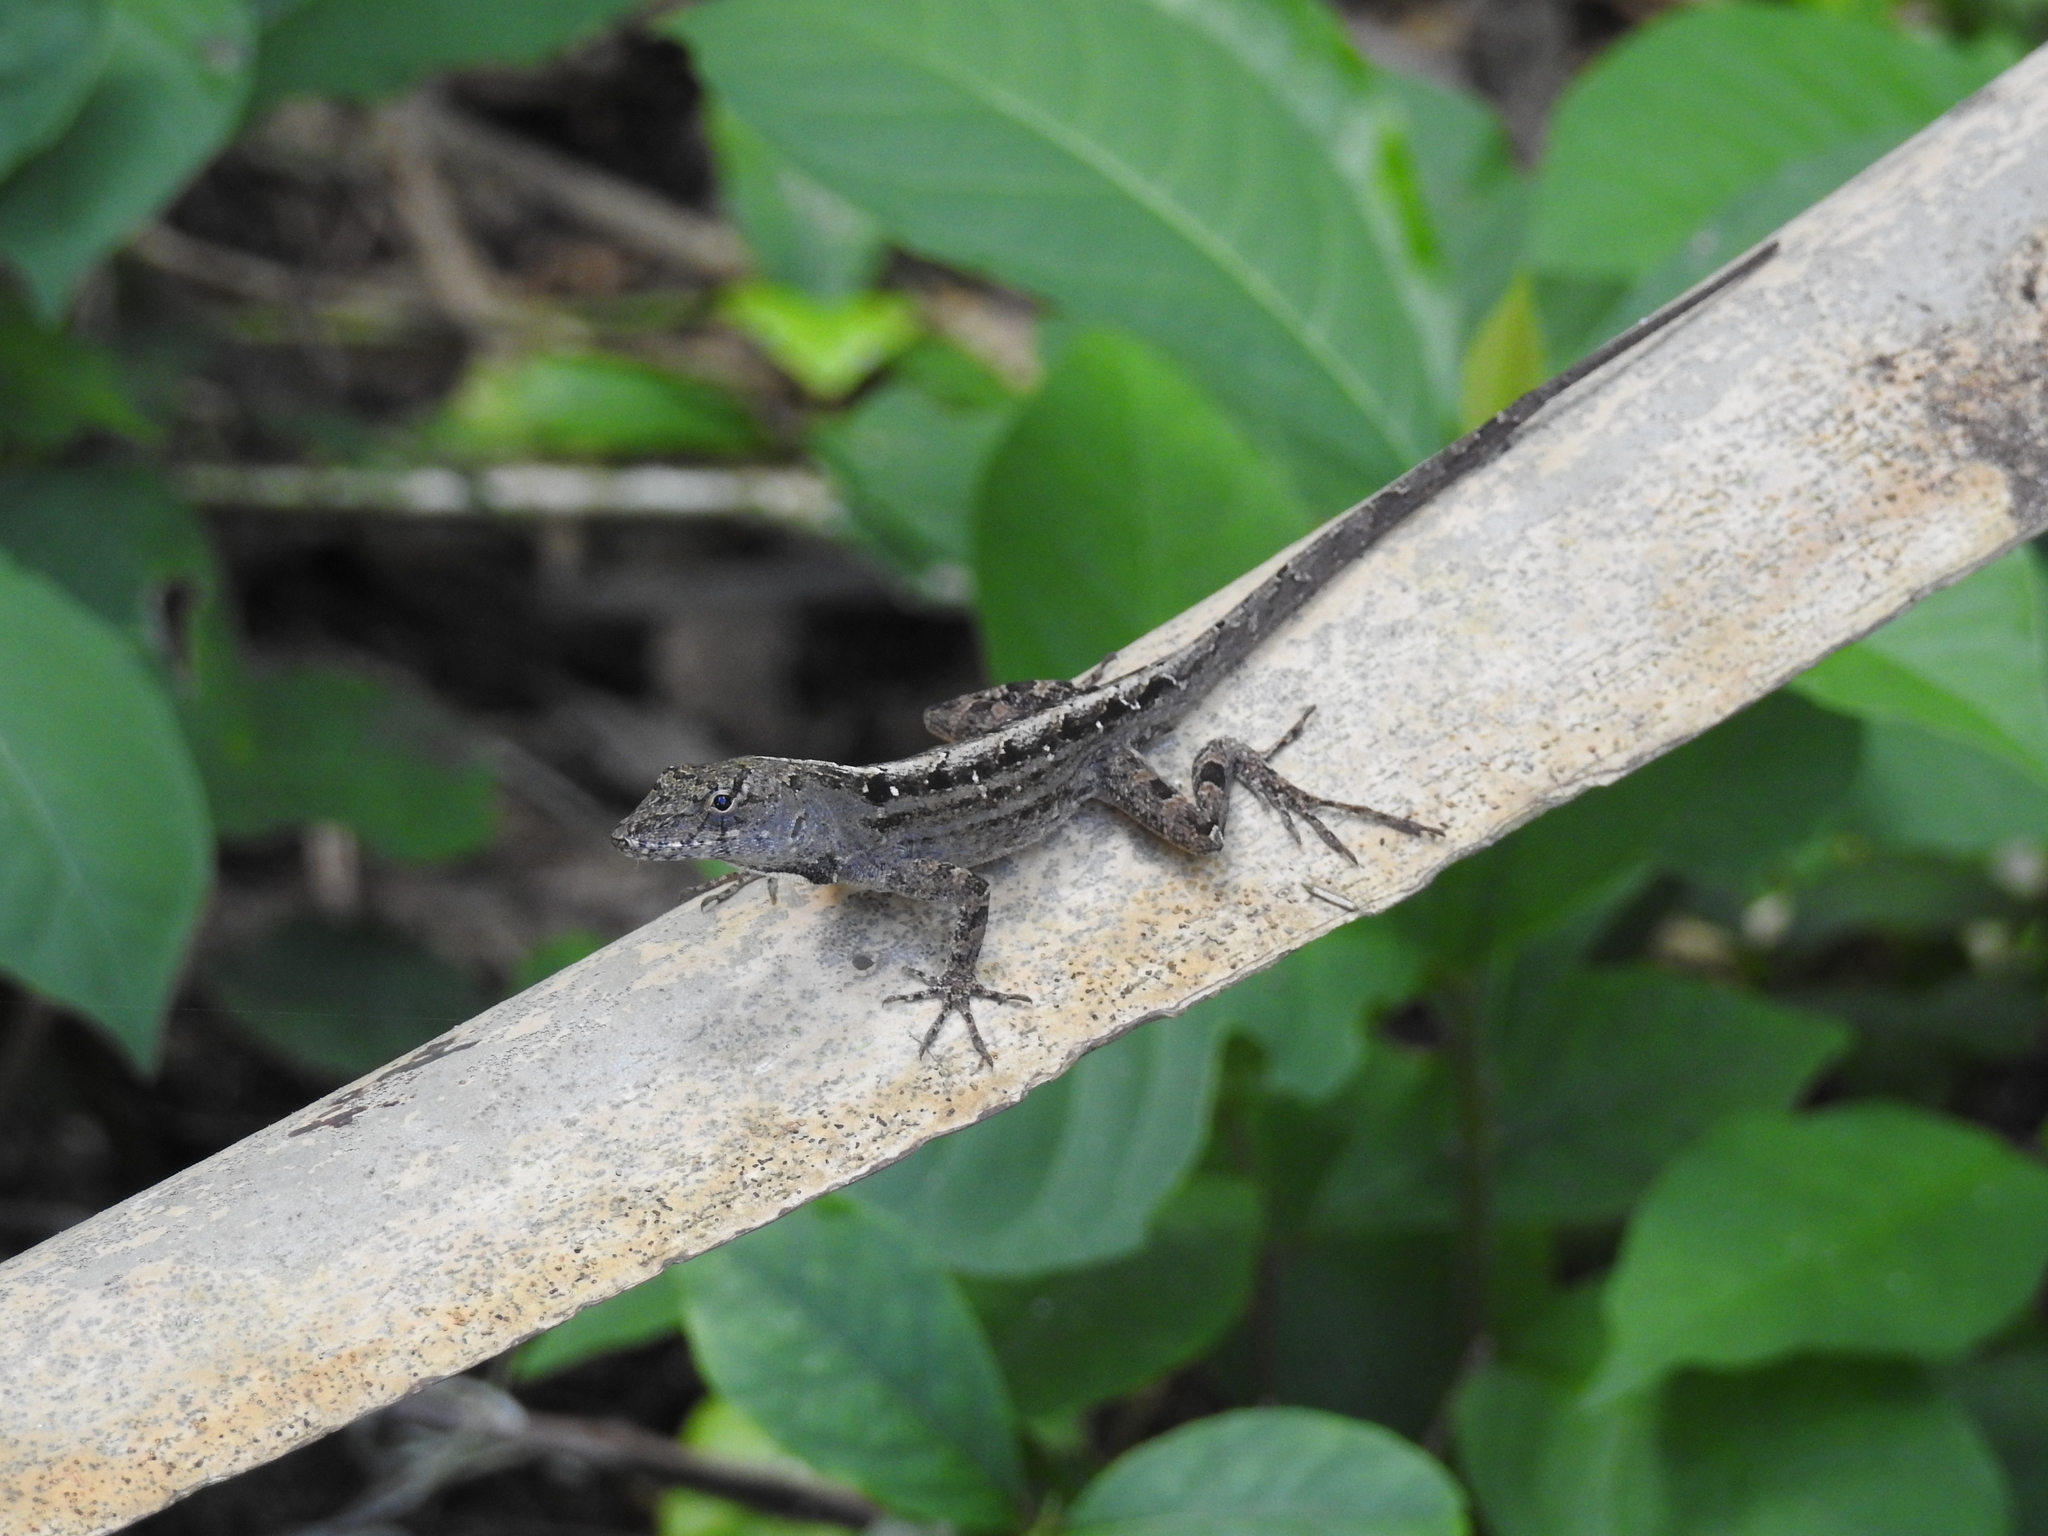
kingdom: Animalia
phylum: Chordata
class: Squamata
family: Dactyloidae
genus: Anolis
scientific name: Anolis sagrei
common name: Brown anole
